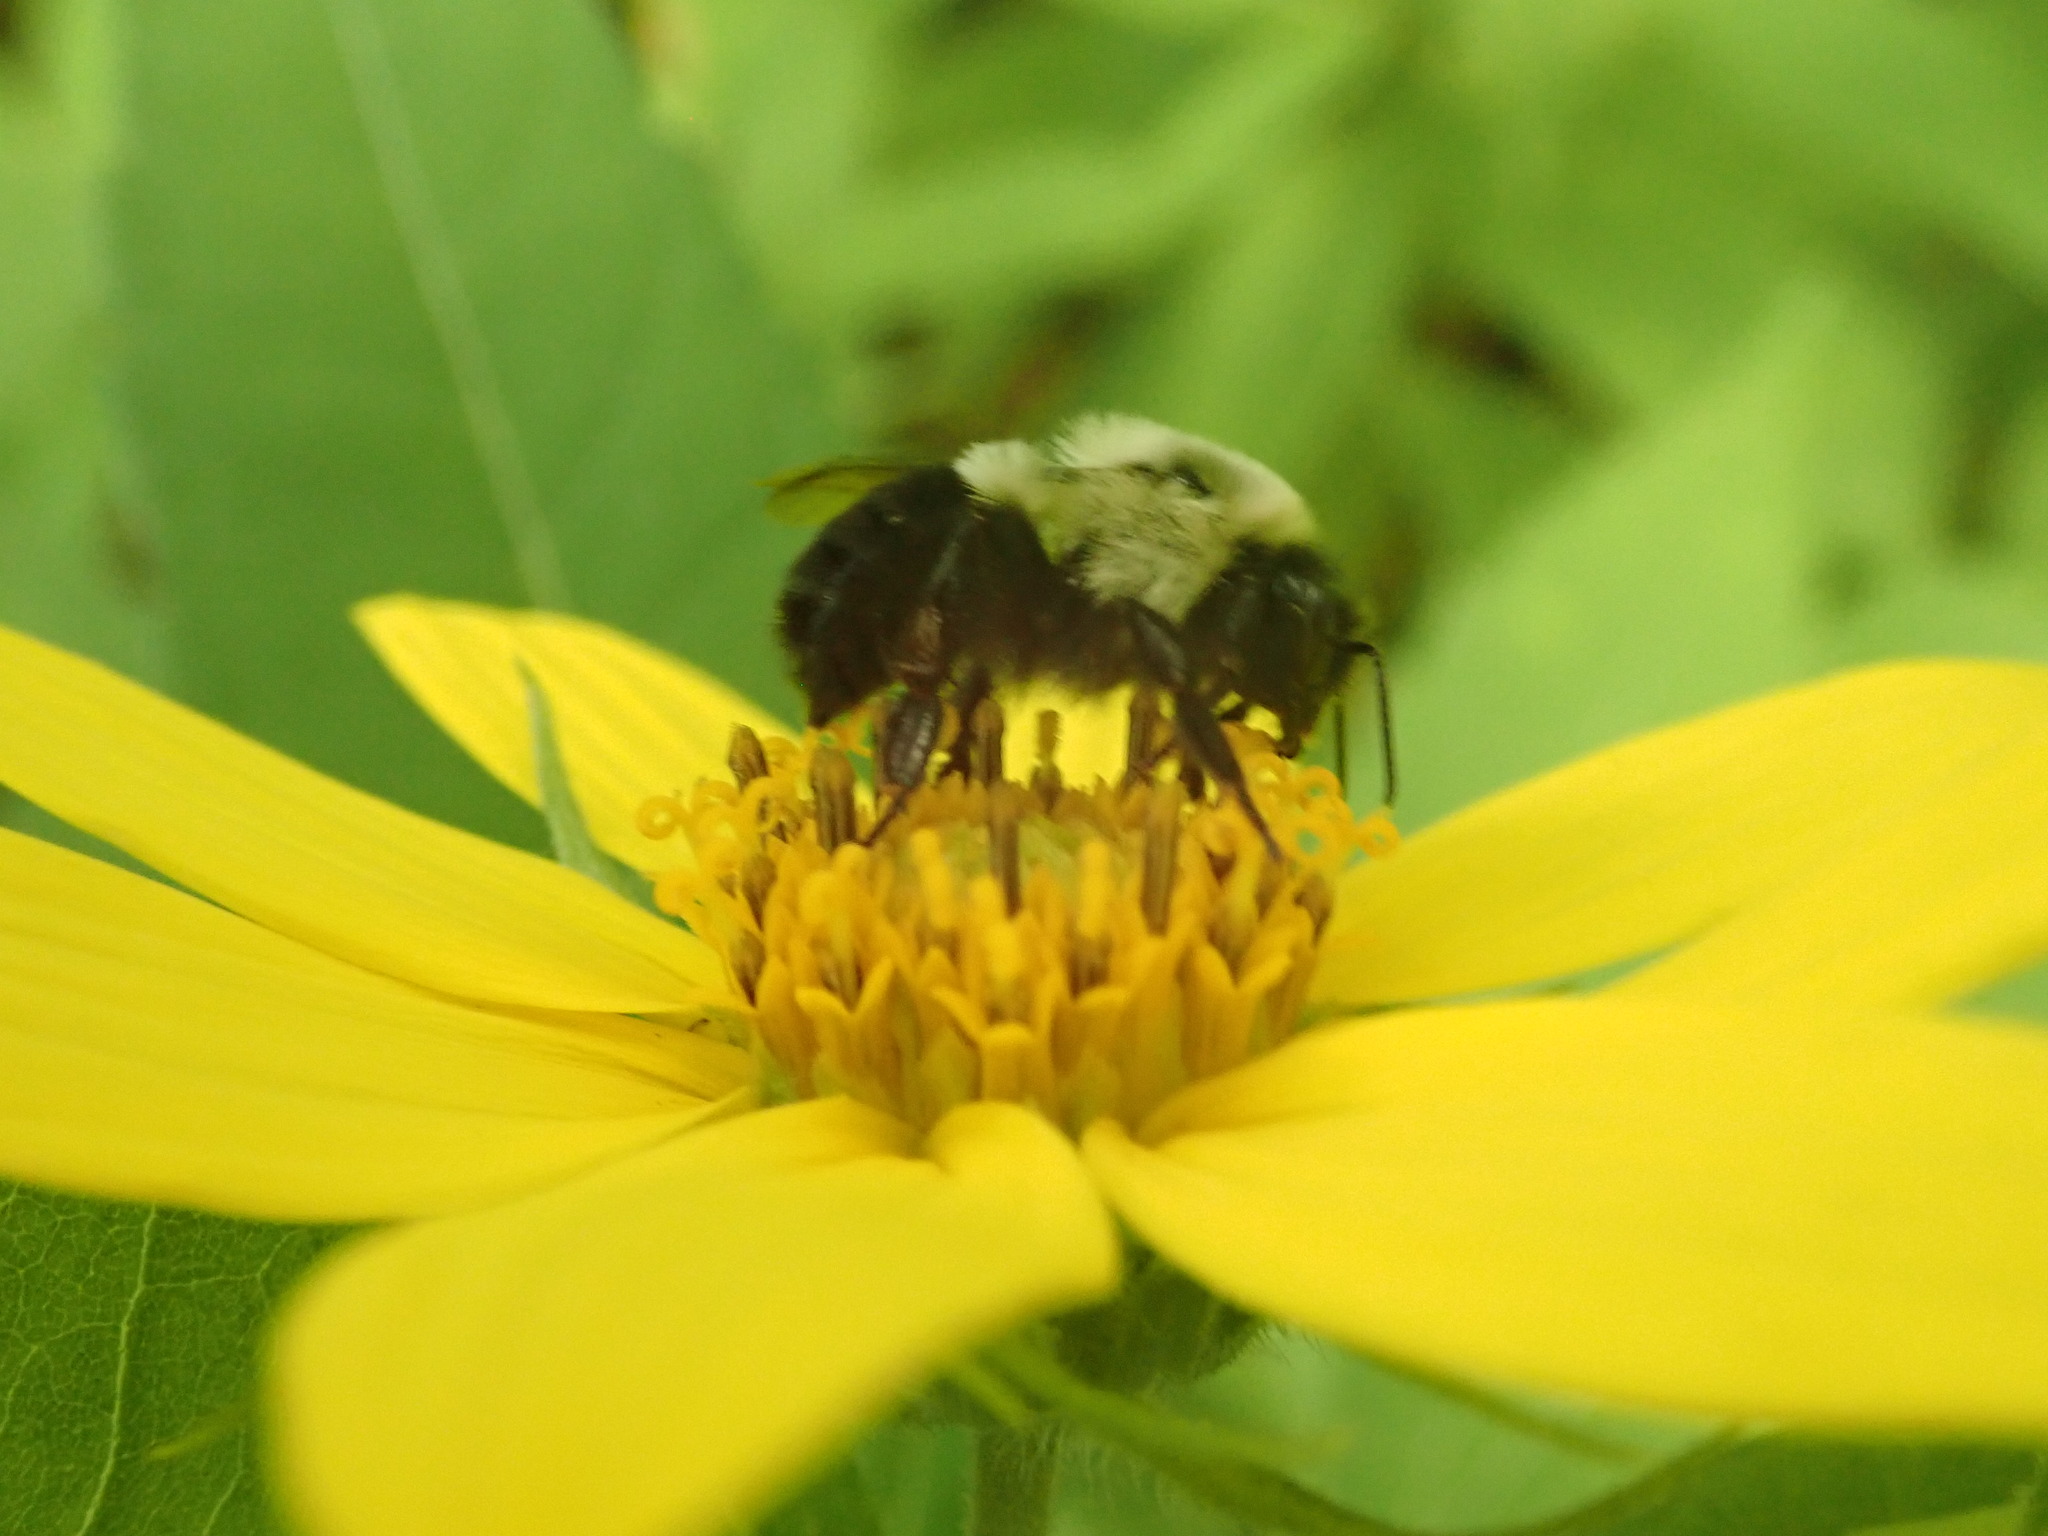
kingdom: Animalia
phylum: Arthropoda
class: Insecta
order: Hymenoptera
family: Apidae
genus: Bombus
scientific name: Bombus impatiens
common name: Common eastern bumble bee
